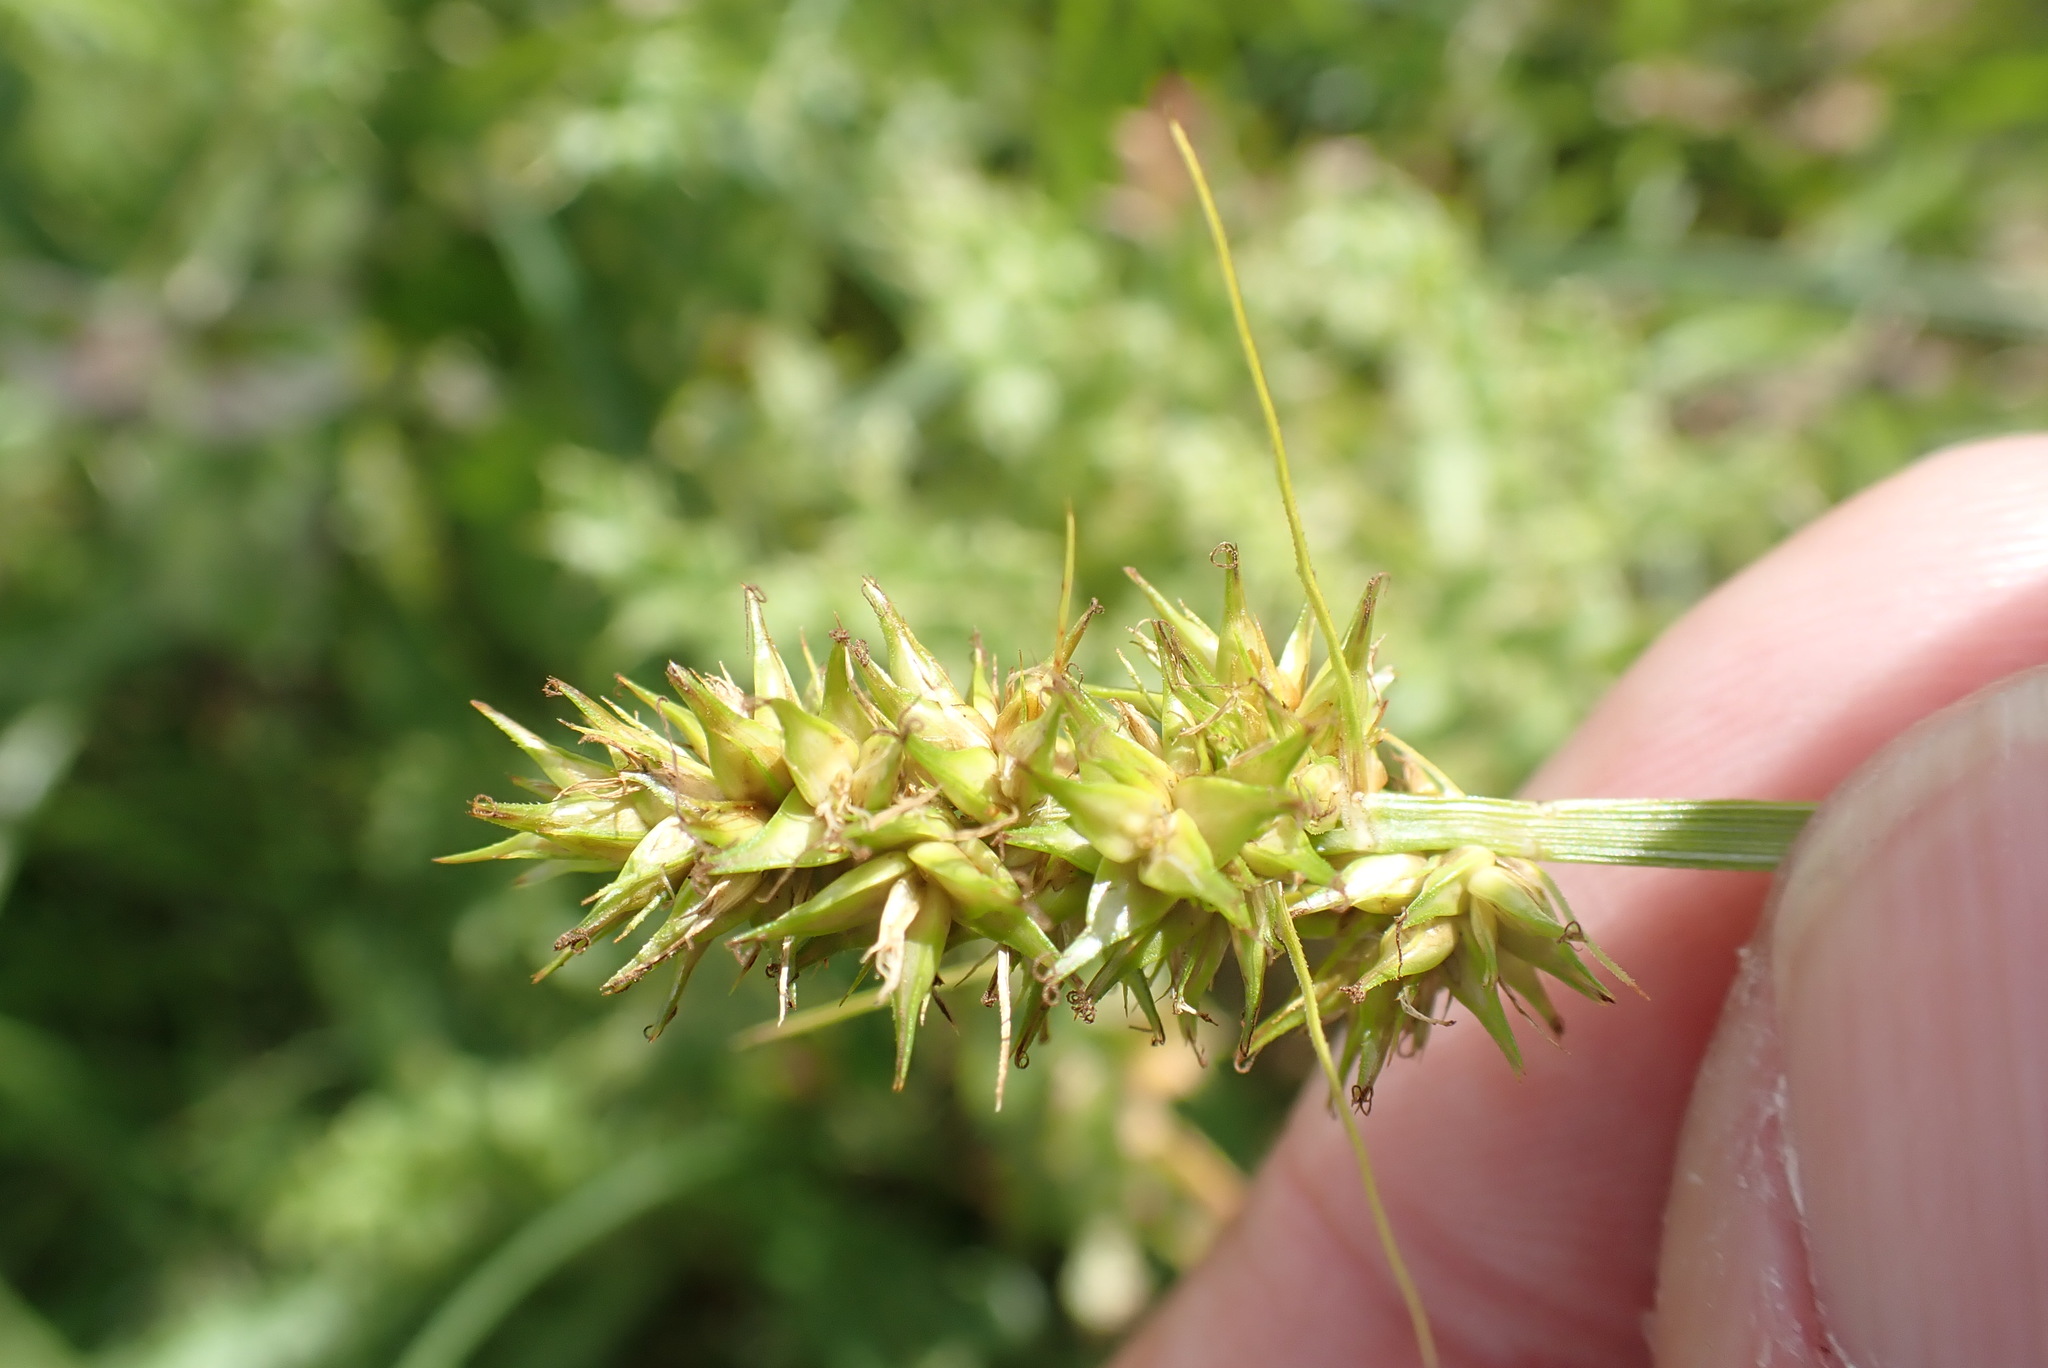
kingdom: Plantae
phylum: Tracheophyta
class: Liliopsida
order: Poales
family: Cyperaceae
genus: Carex
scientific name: Carex otrubae
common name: False fox-sedge
